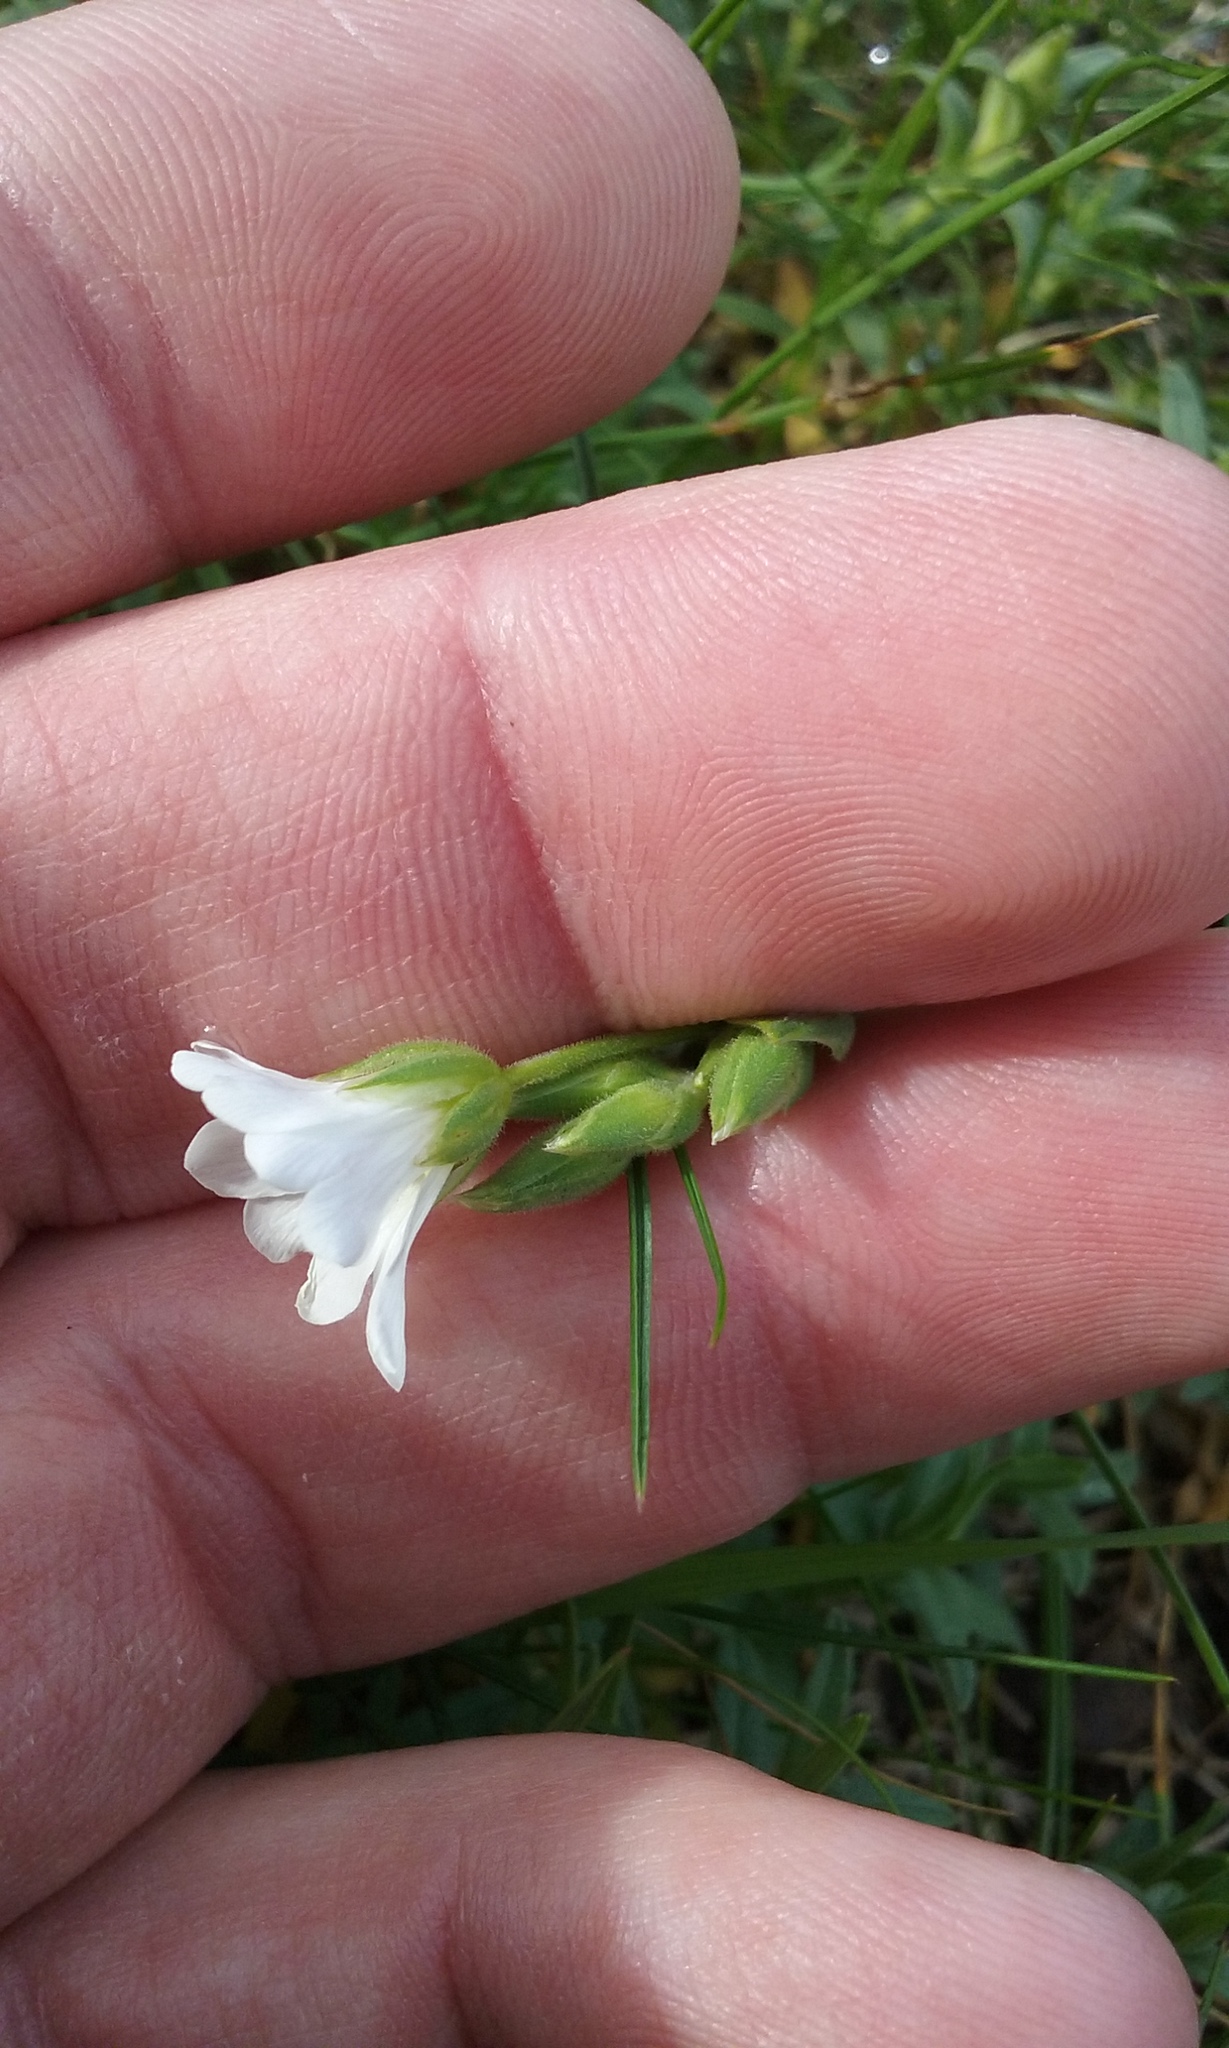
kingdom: Plantae
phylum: Tracheophyta
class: Magnoliopsida
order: Caryophyllales
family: Caryophyllaceae
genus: Cerastium
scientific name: Cerastium elongatum
